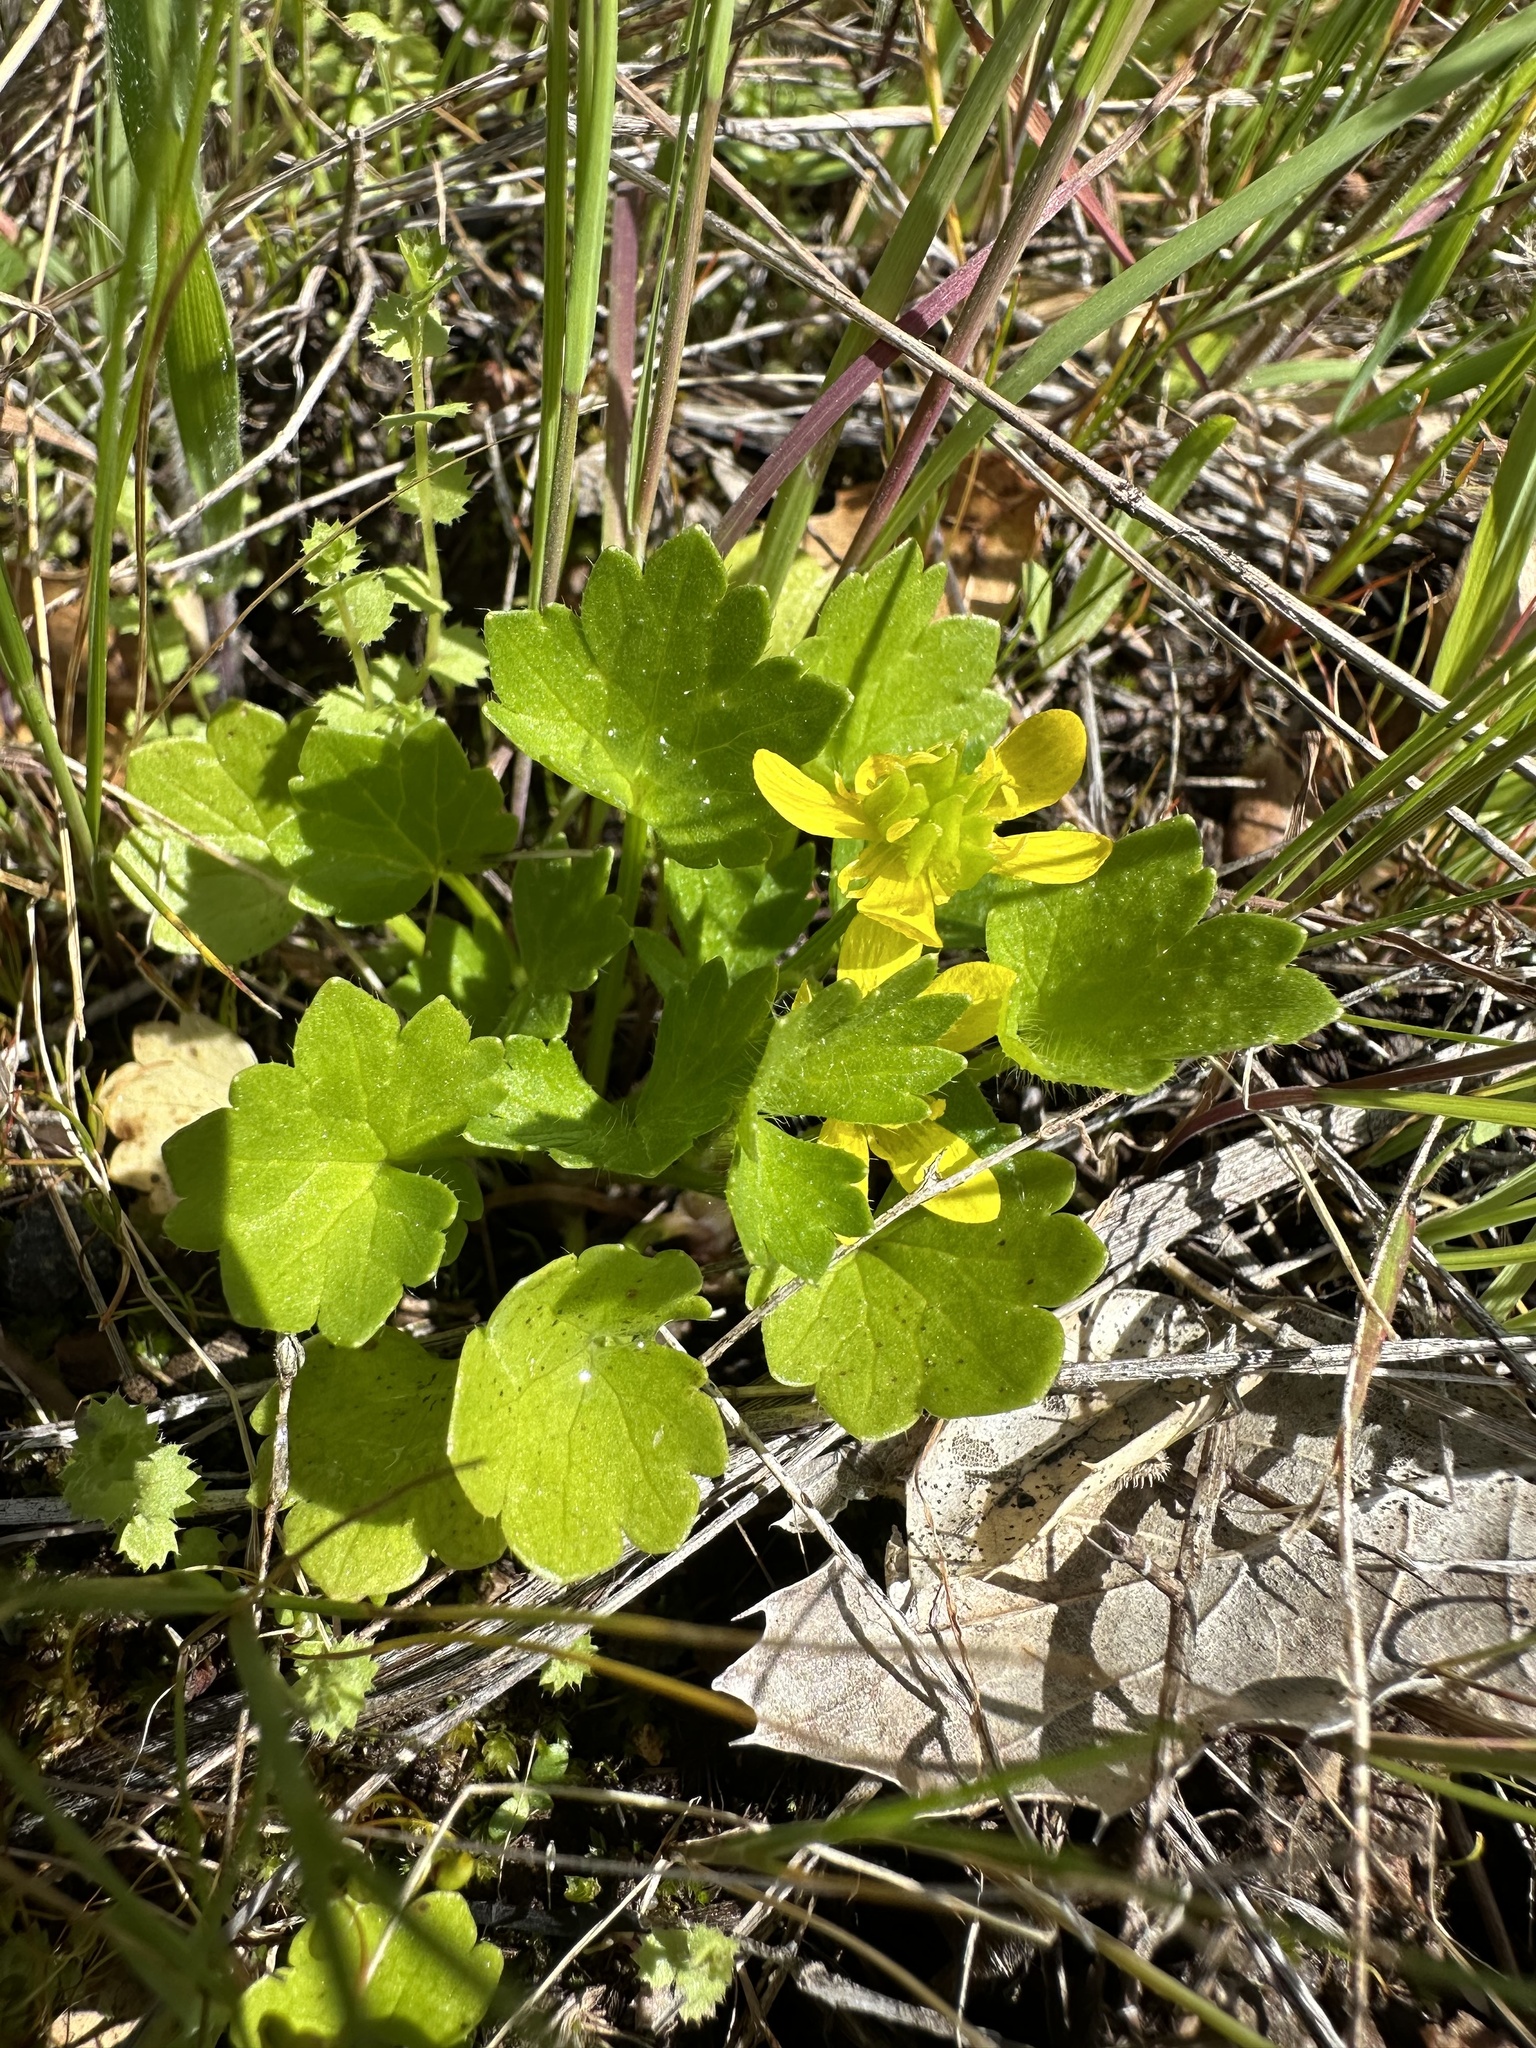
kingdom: Plantae
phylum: Tracheophyta
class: Magnoliopsida
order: Ranunculales
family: Ranunculaceae
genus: Ranunculus
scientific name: Ranunculus muricatus
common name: Rough-fruited buttercup
